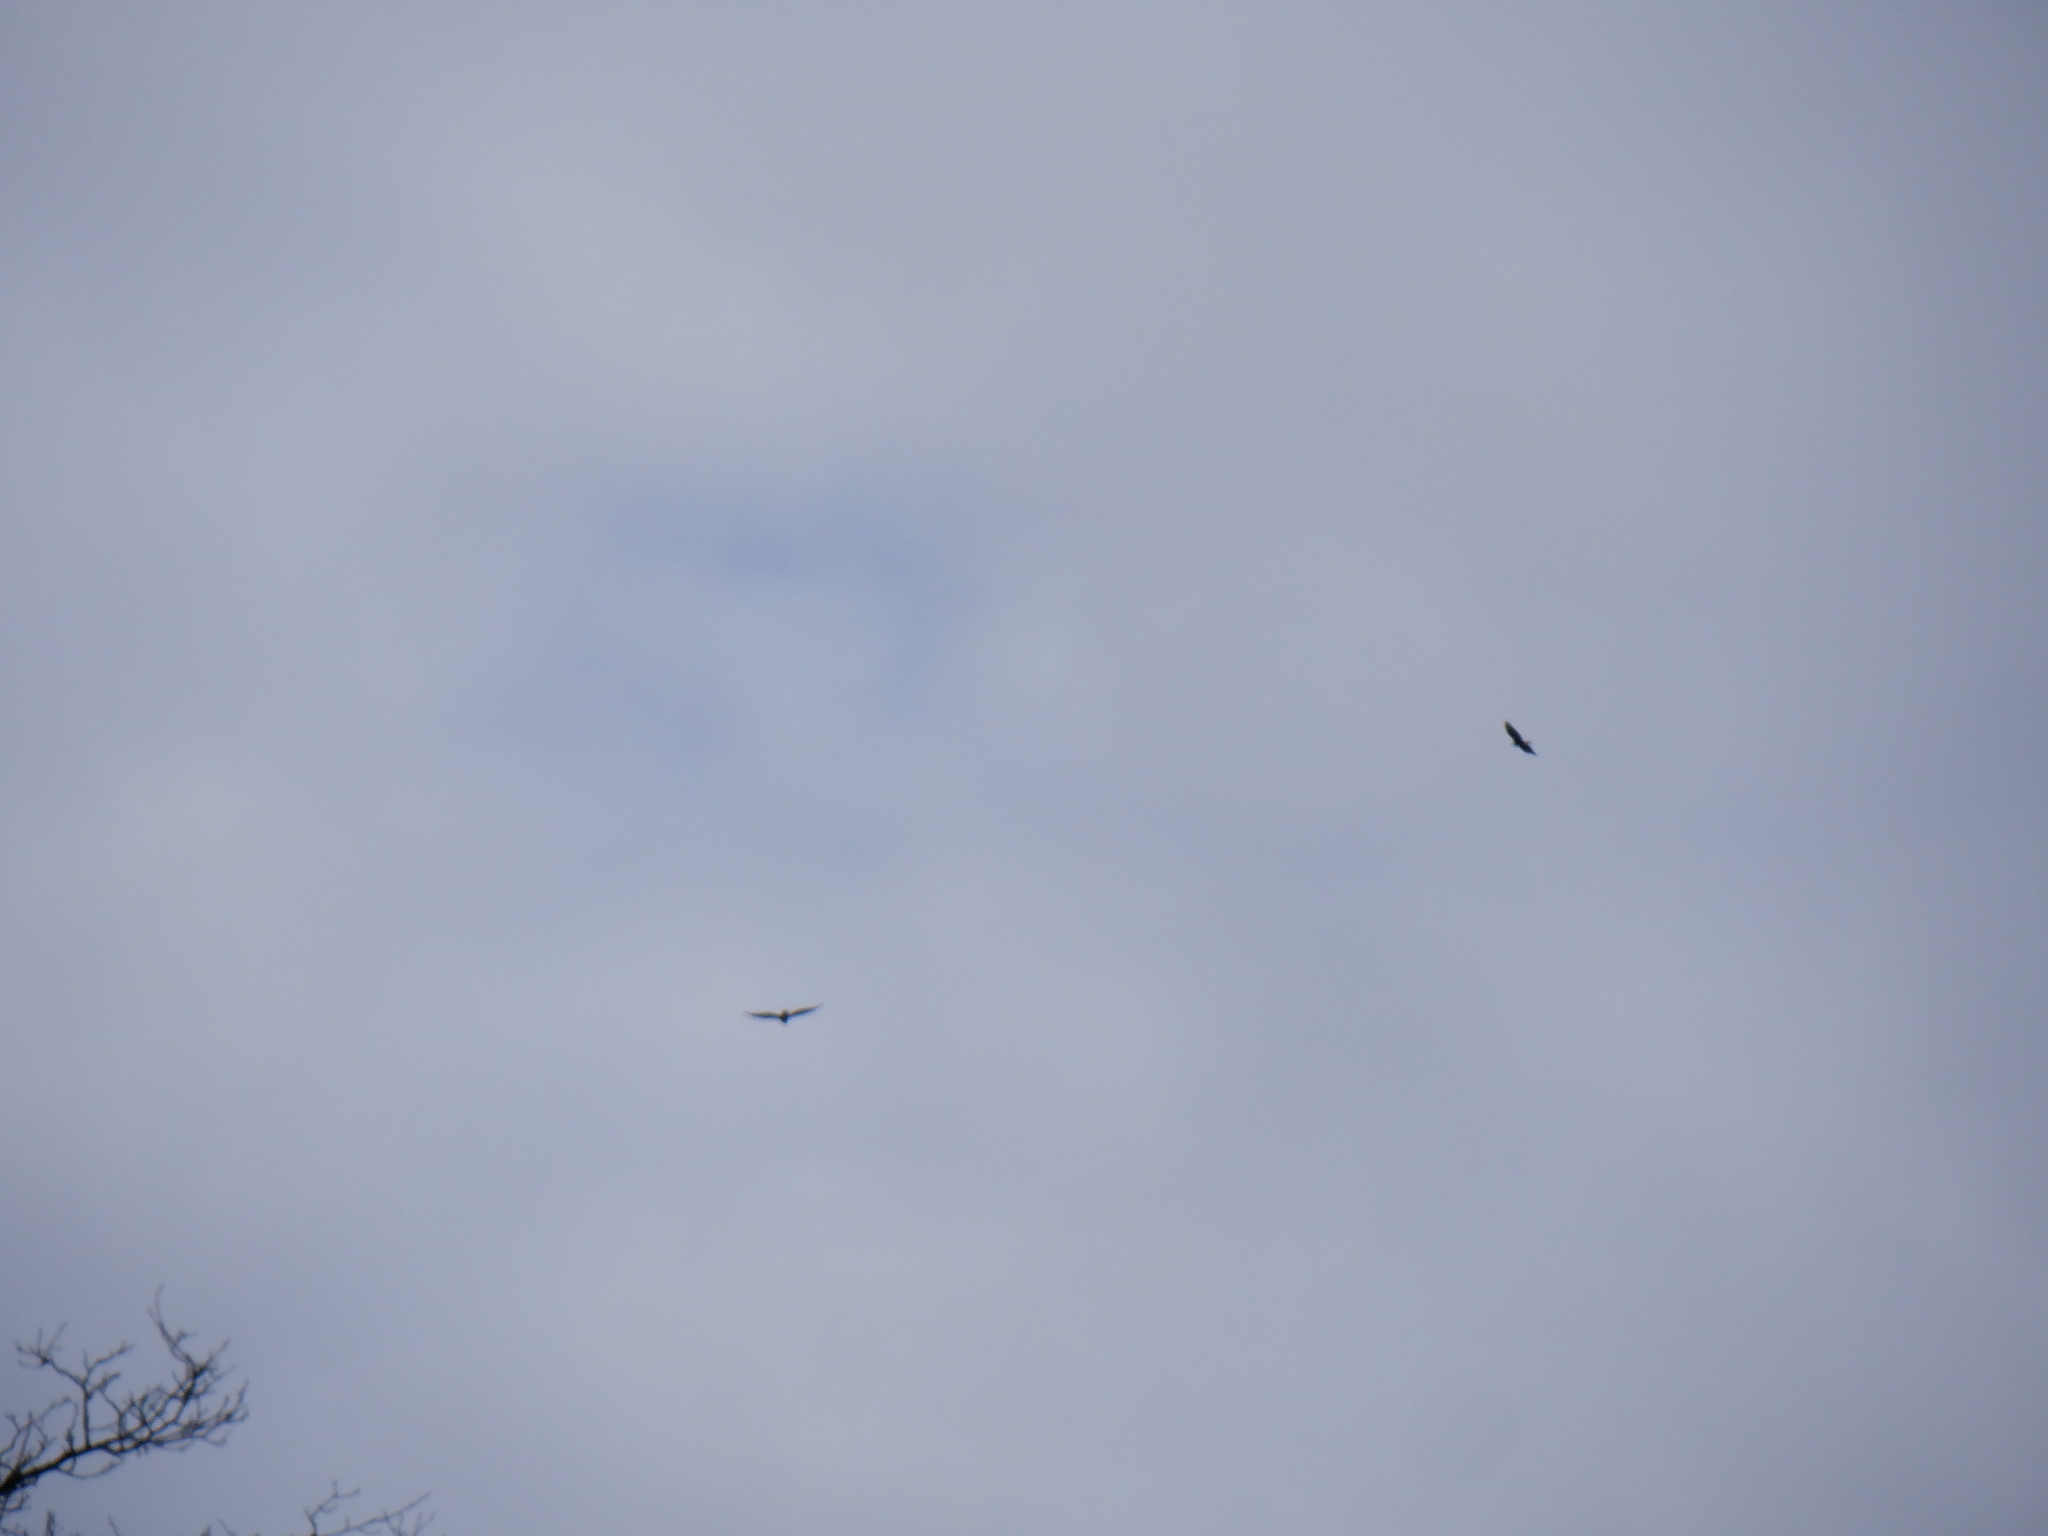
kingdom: Animalia
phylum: Chordata
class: Aves
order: Accipitriformes
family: Cathartidae
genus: Cathartes
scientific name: Cathartes aura
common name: Turkey vulture
